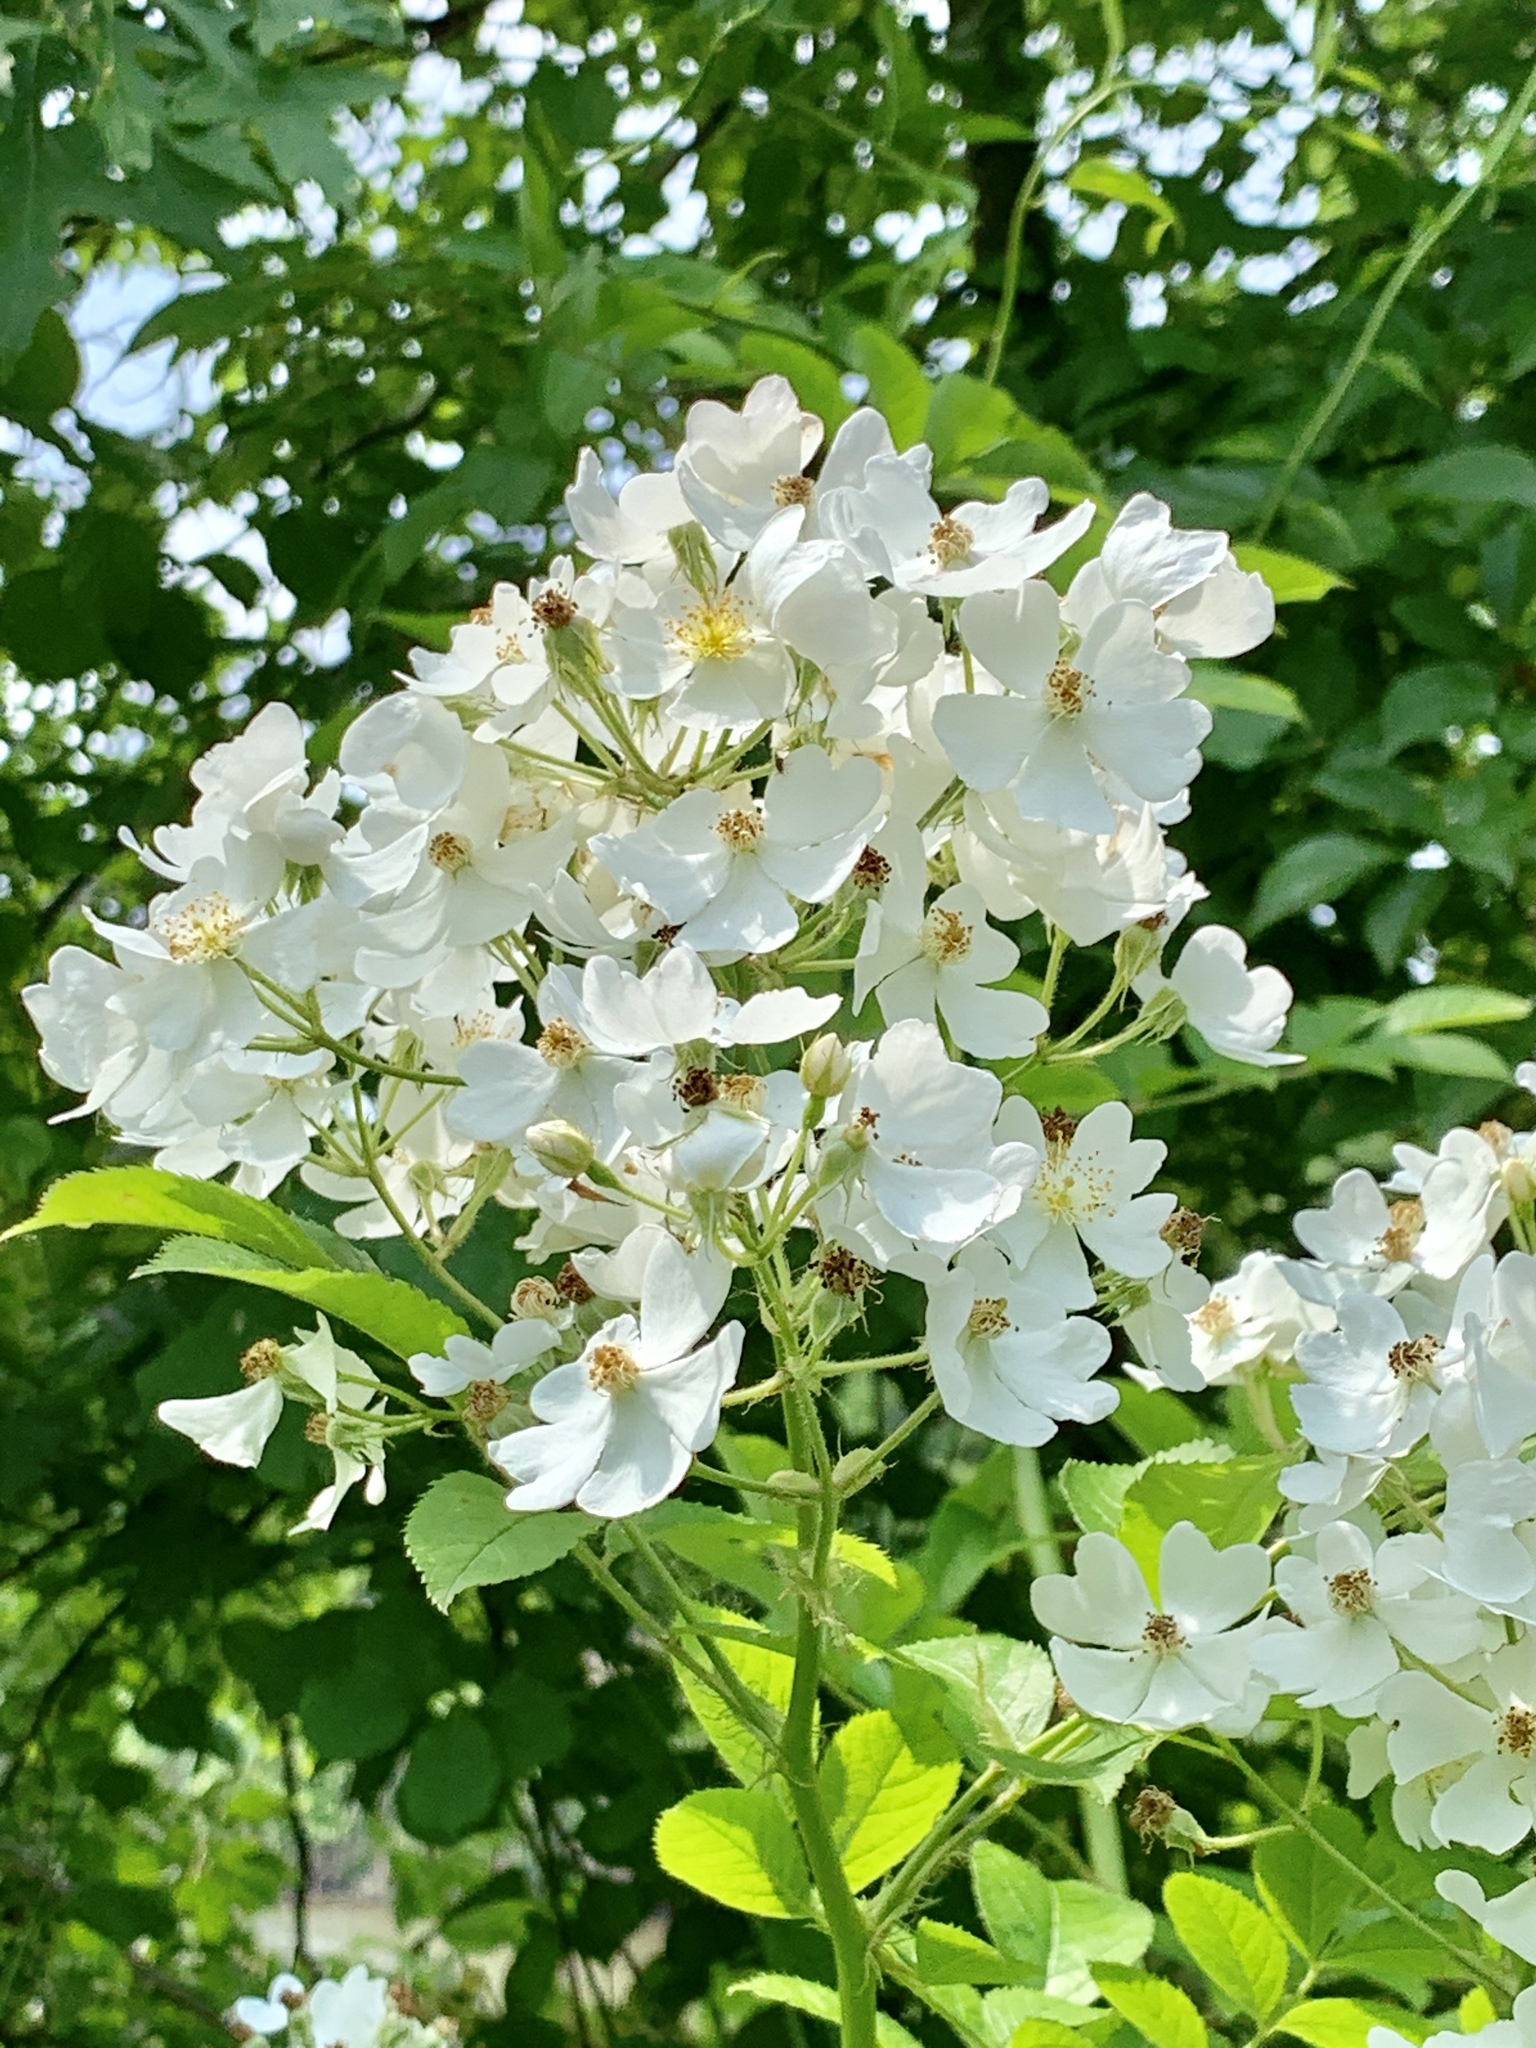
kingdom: Plantae
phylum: Tracheophyta
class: Magnoliopsida
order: Rosales
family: Rosaceae
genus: Rosa
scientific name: Rosa multiflora
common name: Multiflora rose
